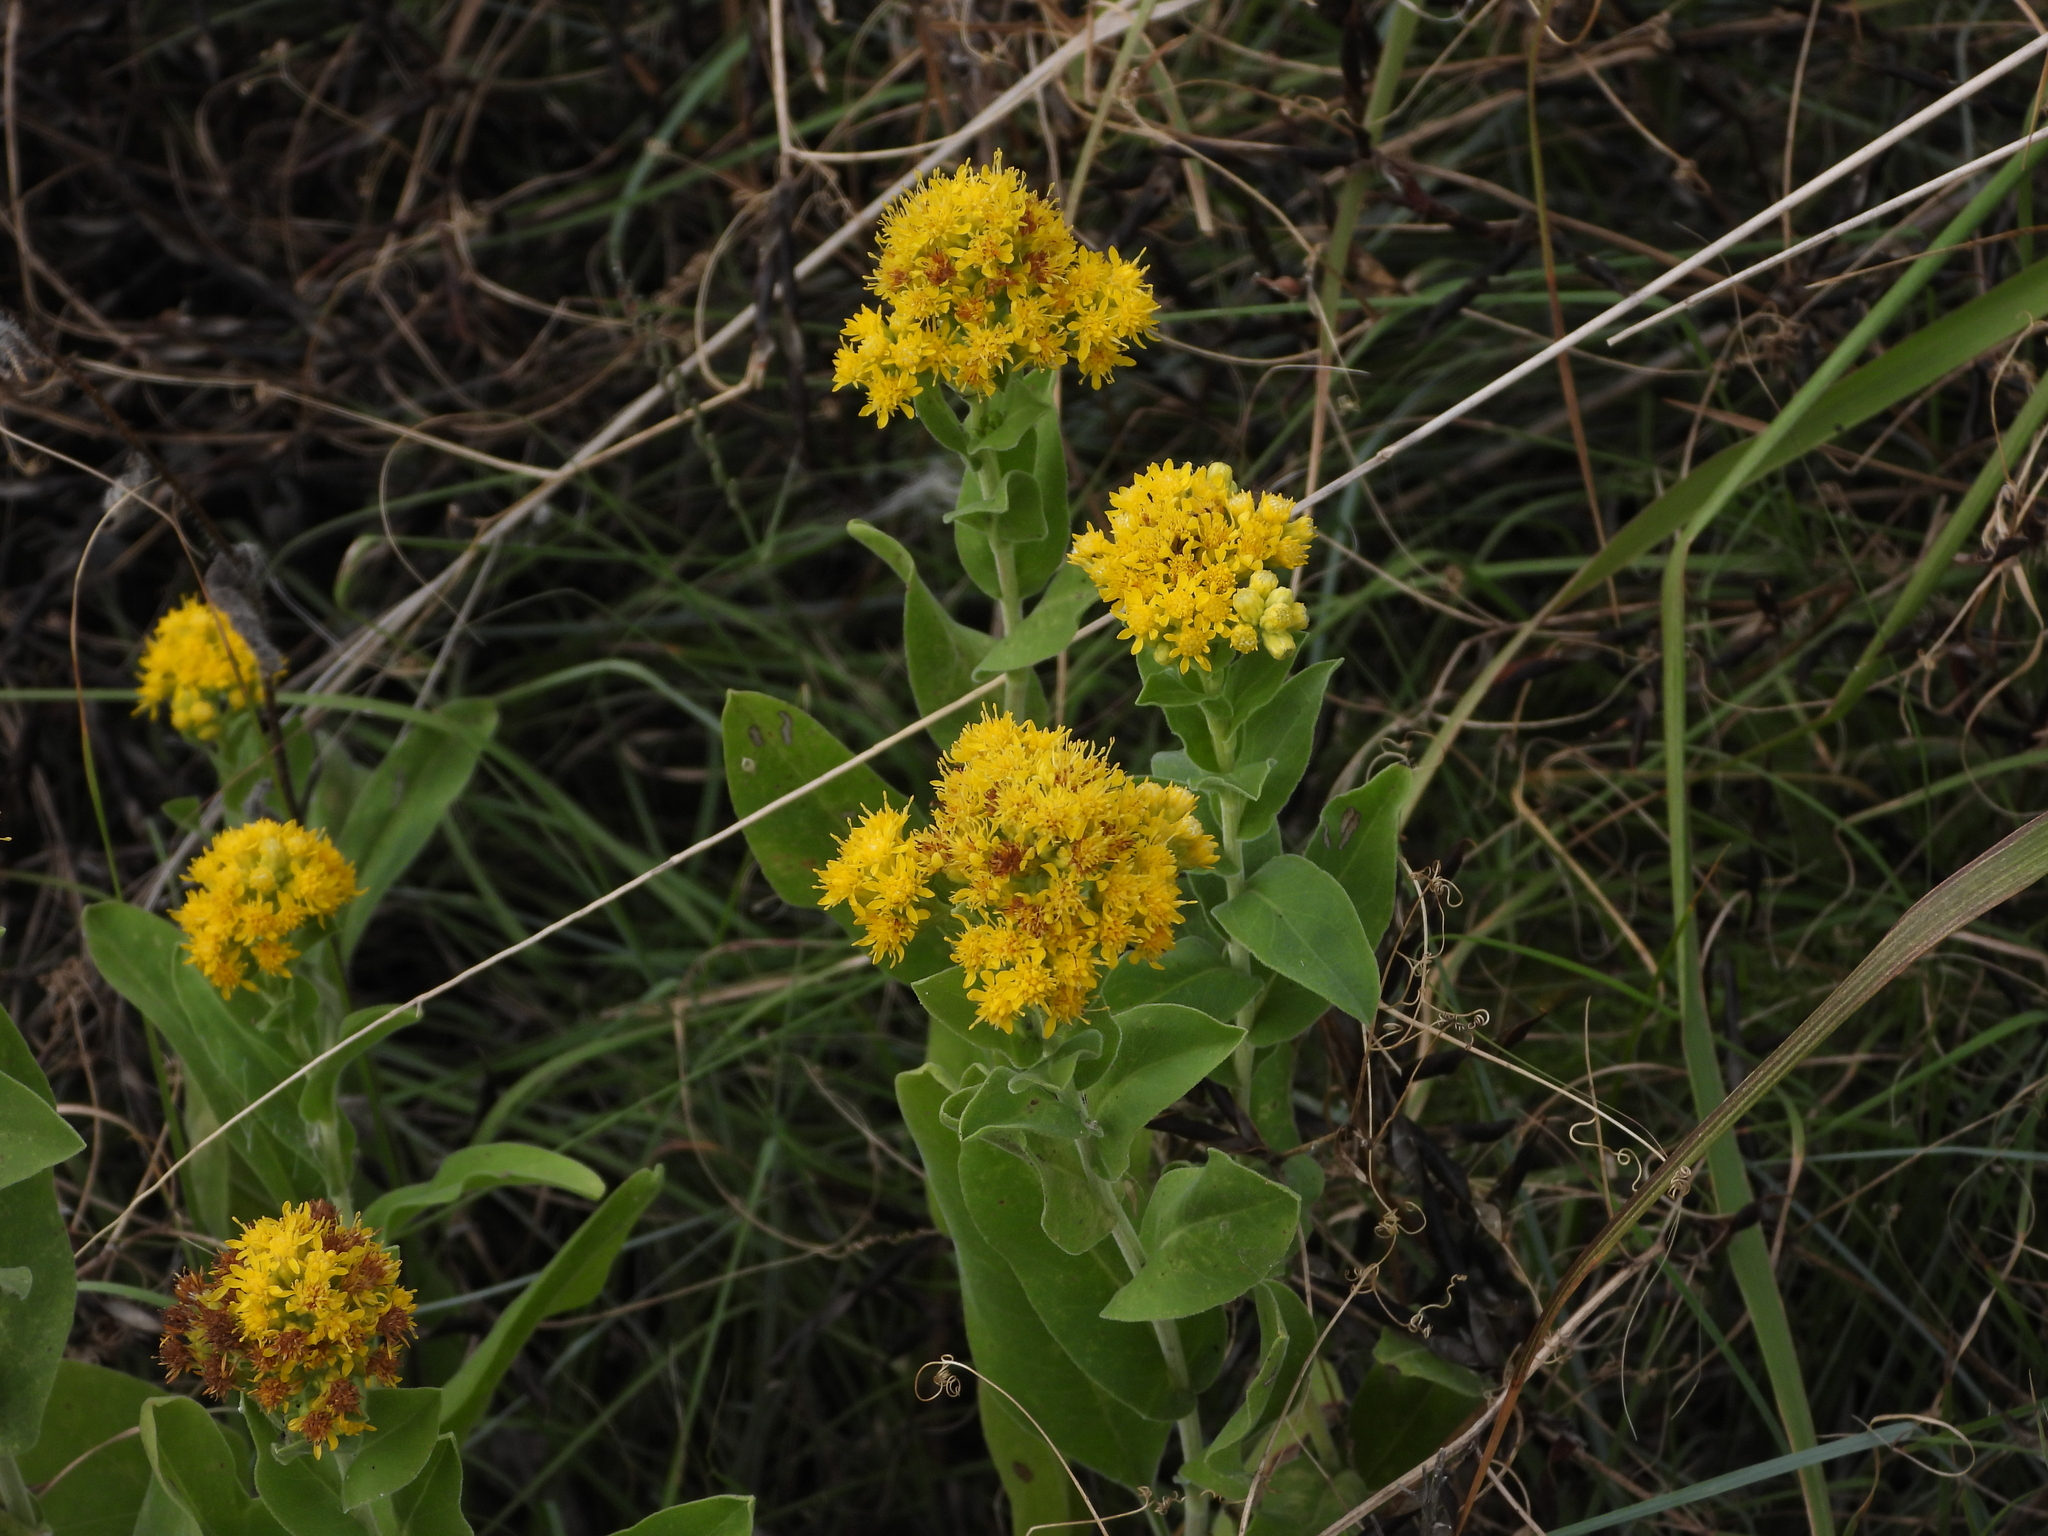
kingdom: Plantae
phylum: Tracheophyta
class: Magnoliopsida
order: Asterales
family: Asteraceae
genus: Solidago
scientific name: Solidago rigida
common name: Rigid goldenrod
